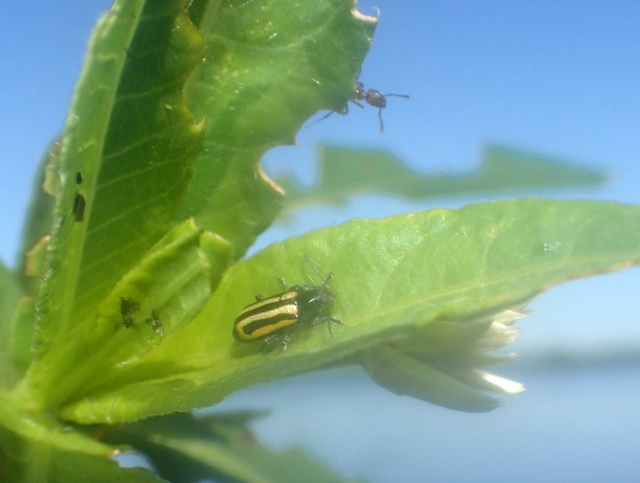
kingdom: Animalia
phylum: Arthropoda
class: Insecta
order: Coleoptera
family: Chrysomelidae
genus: Agasicles
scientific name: Agasicles hygrophila
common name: Alligatorweed flea beetle
